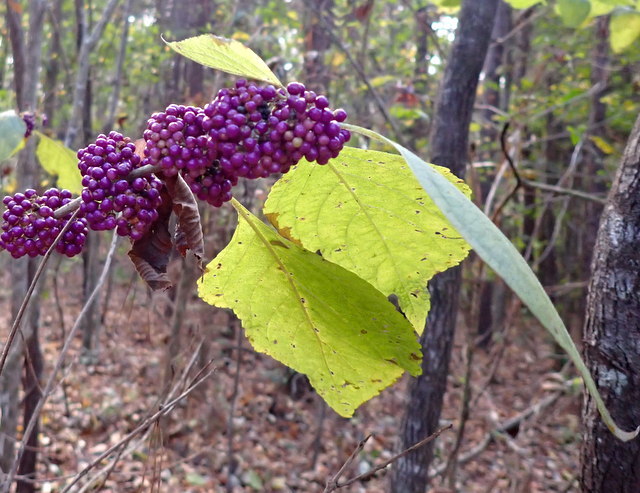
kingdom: Plantae
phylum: Tracheophyta
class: Magnoliopsida
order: Lamiales
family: Lamiaceae
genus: Callicarpa
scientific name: Callicarpa americana
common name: American beautyberry
